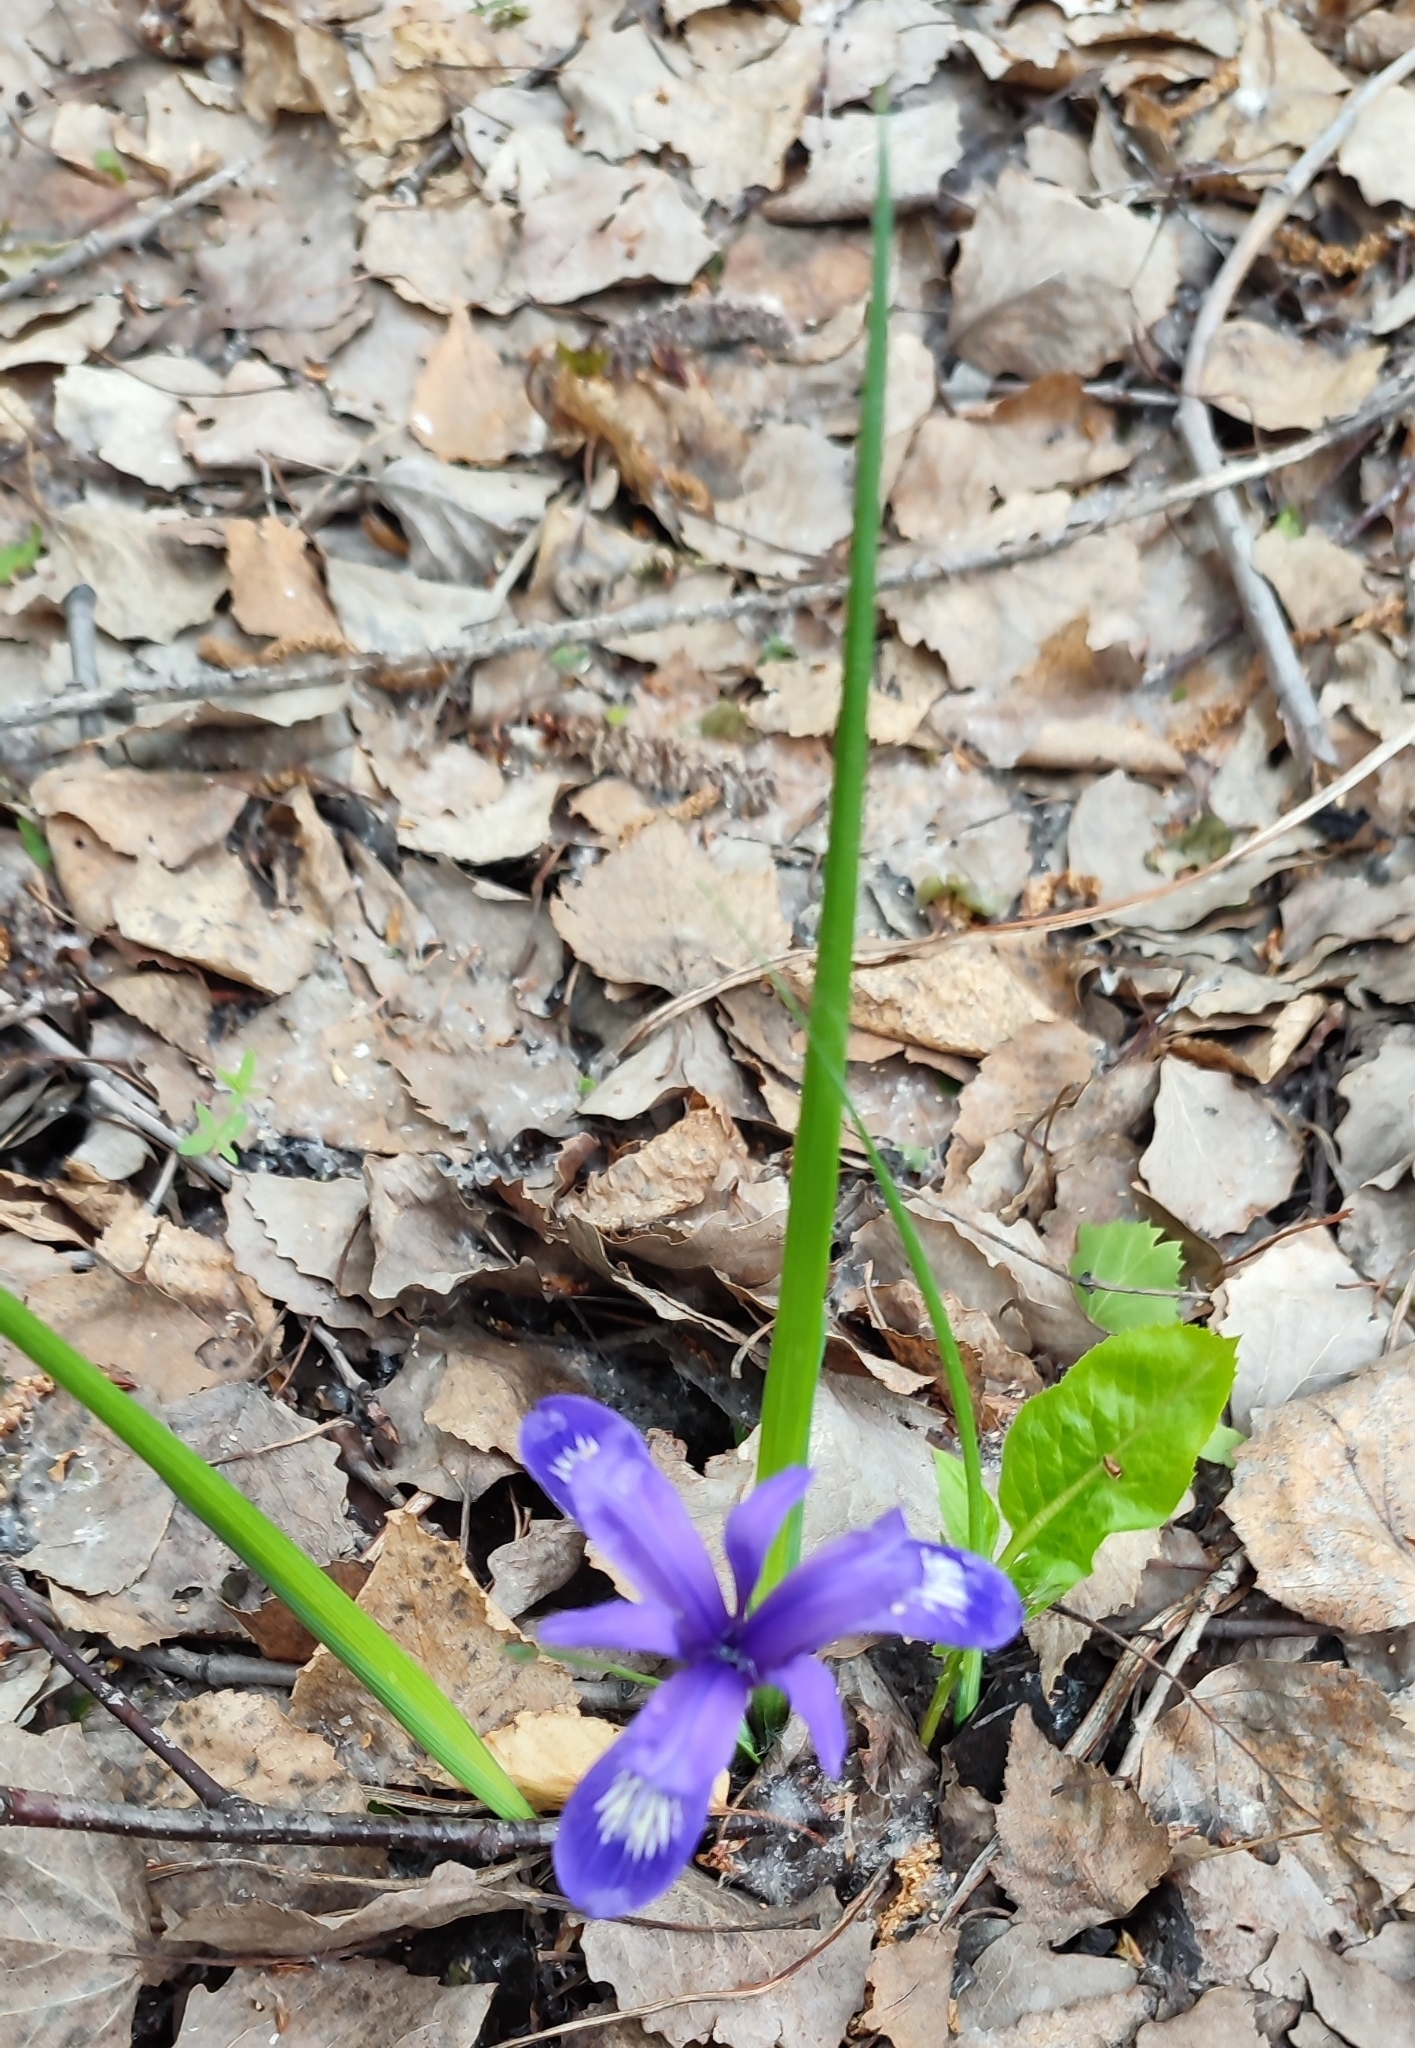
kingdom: Plantae
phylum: Tracheophyta
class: Liliopsida
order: Asparagales
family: Iridaceae
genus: Iris
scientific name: Iris ruthenica
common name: Purple-bract iris
